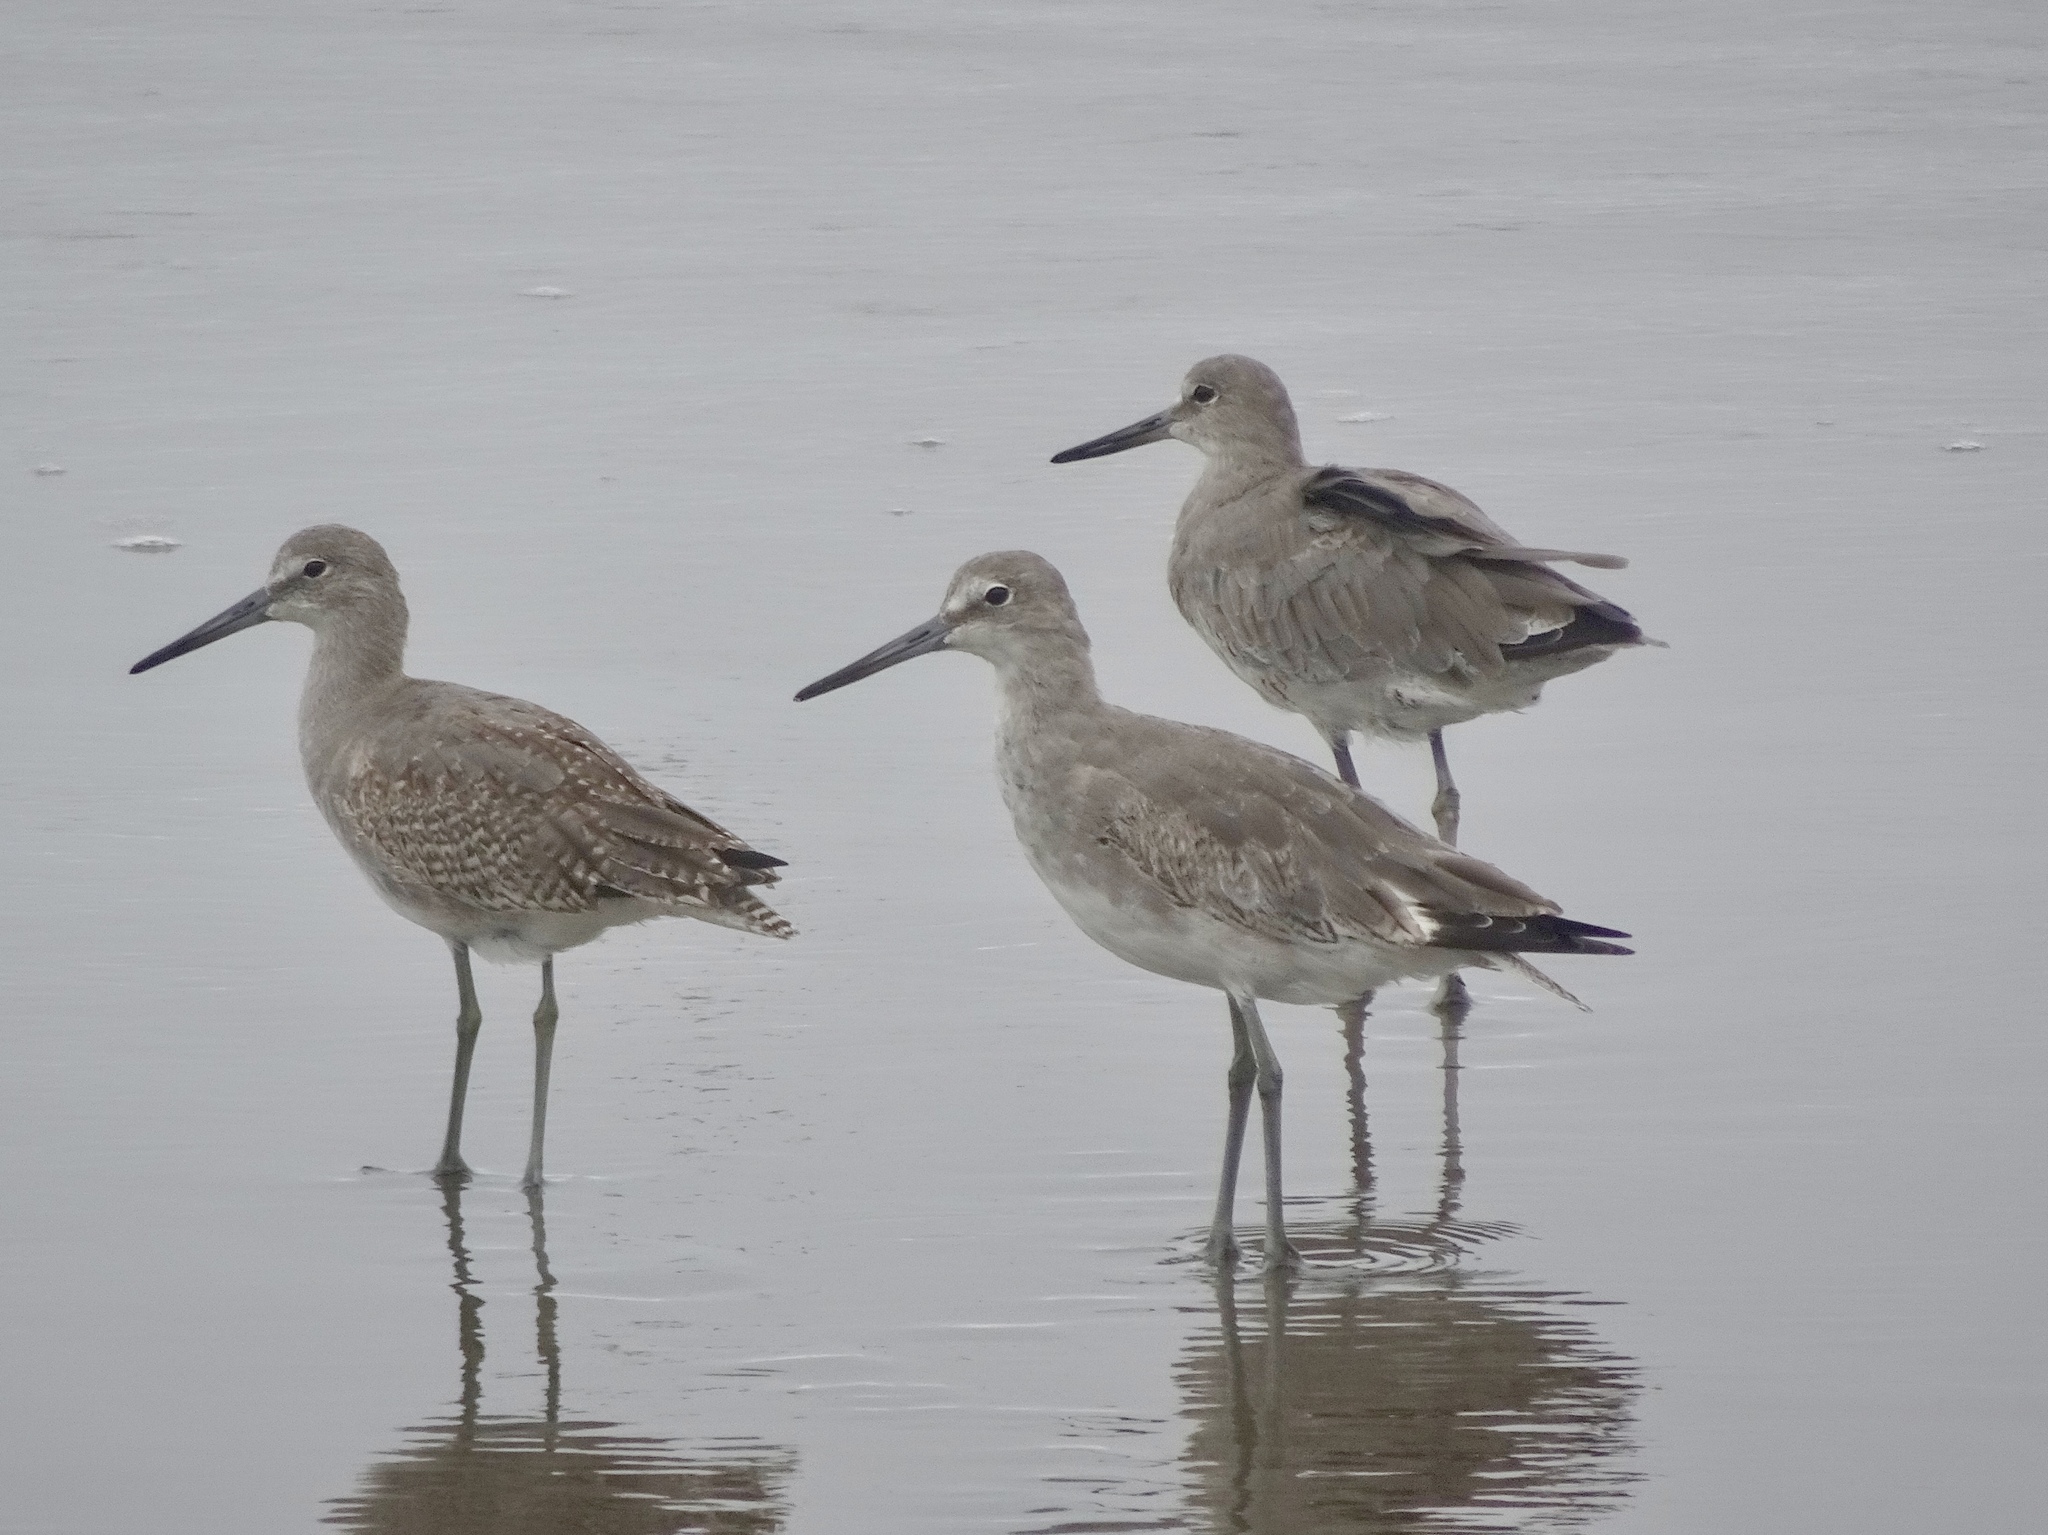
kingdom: Animalia
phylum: Chordata
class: Aves
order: Charadriiformes
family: Scolopacidae
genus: Tringa
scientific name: Tringa semipalmata
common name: Willet
